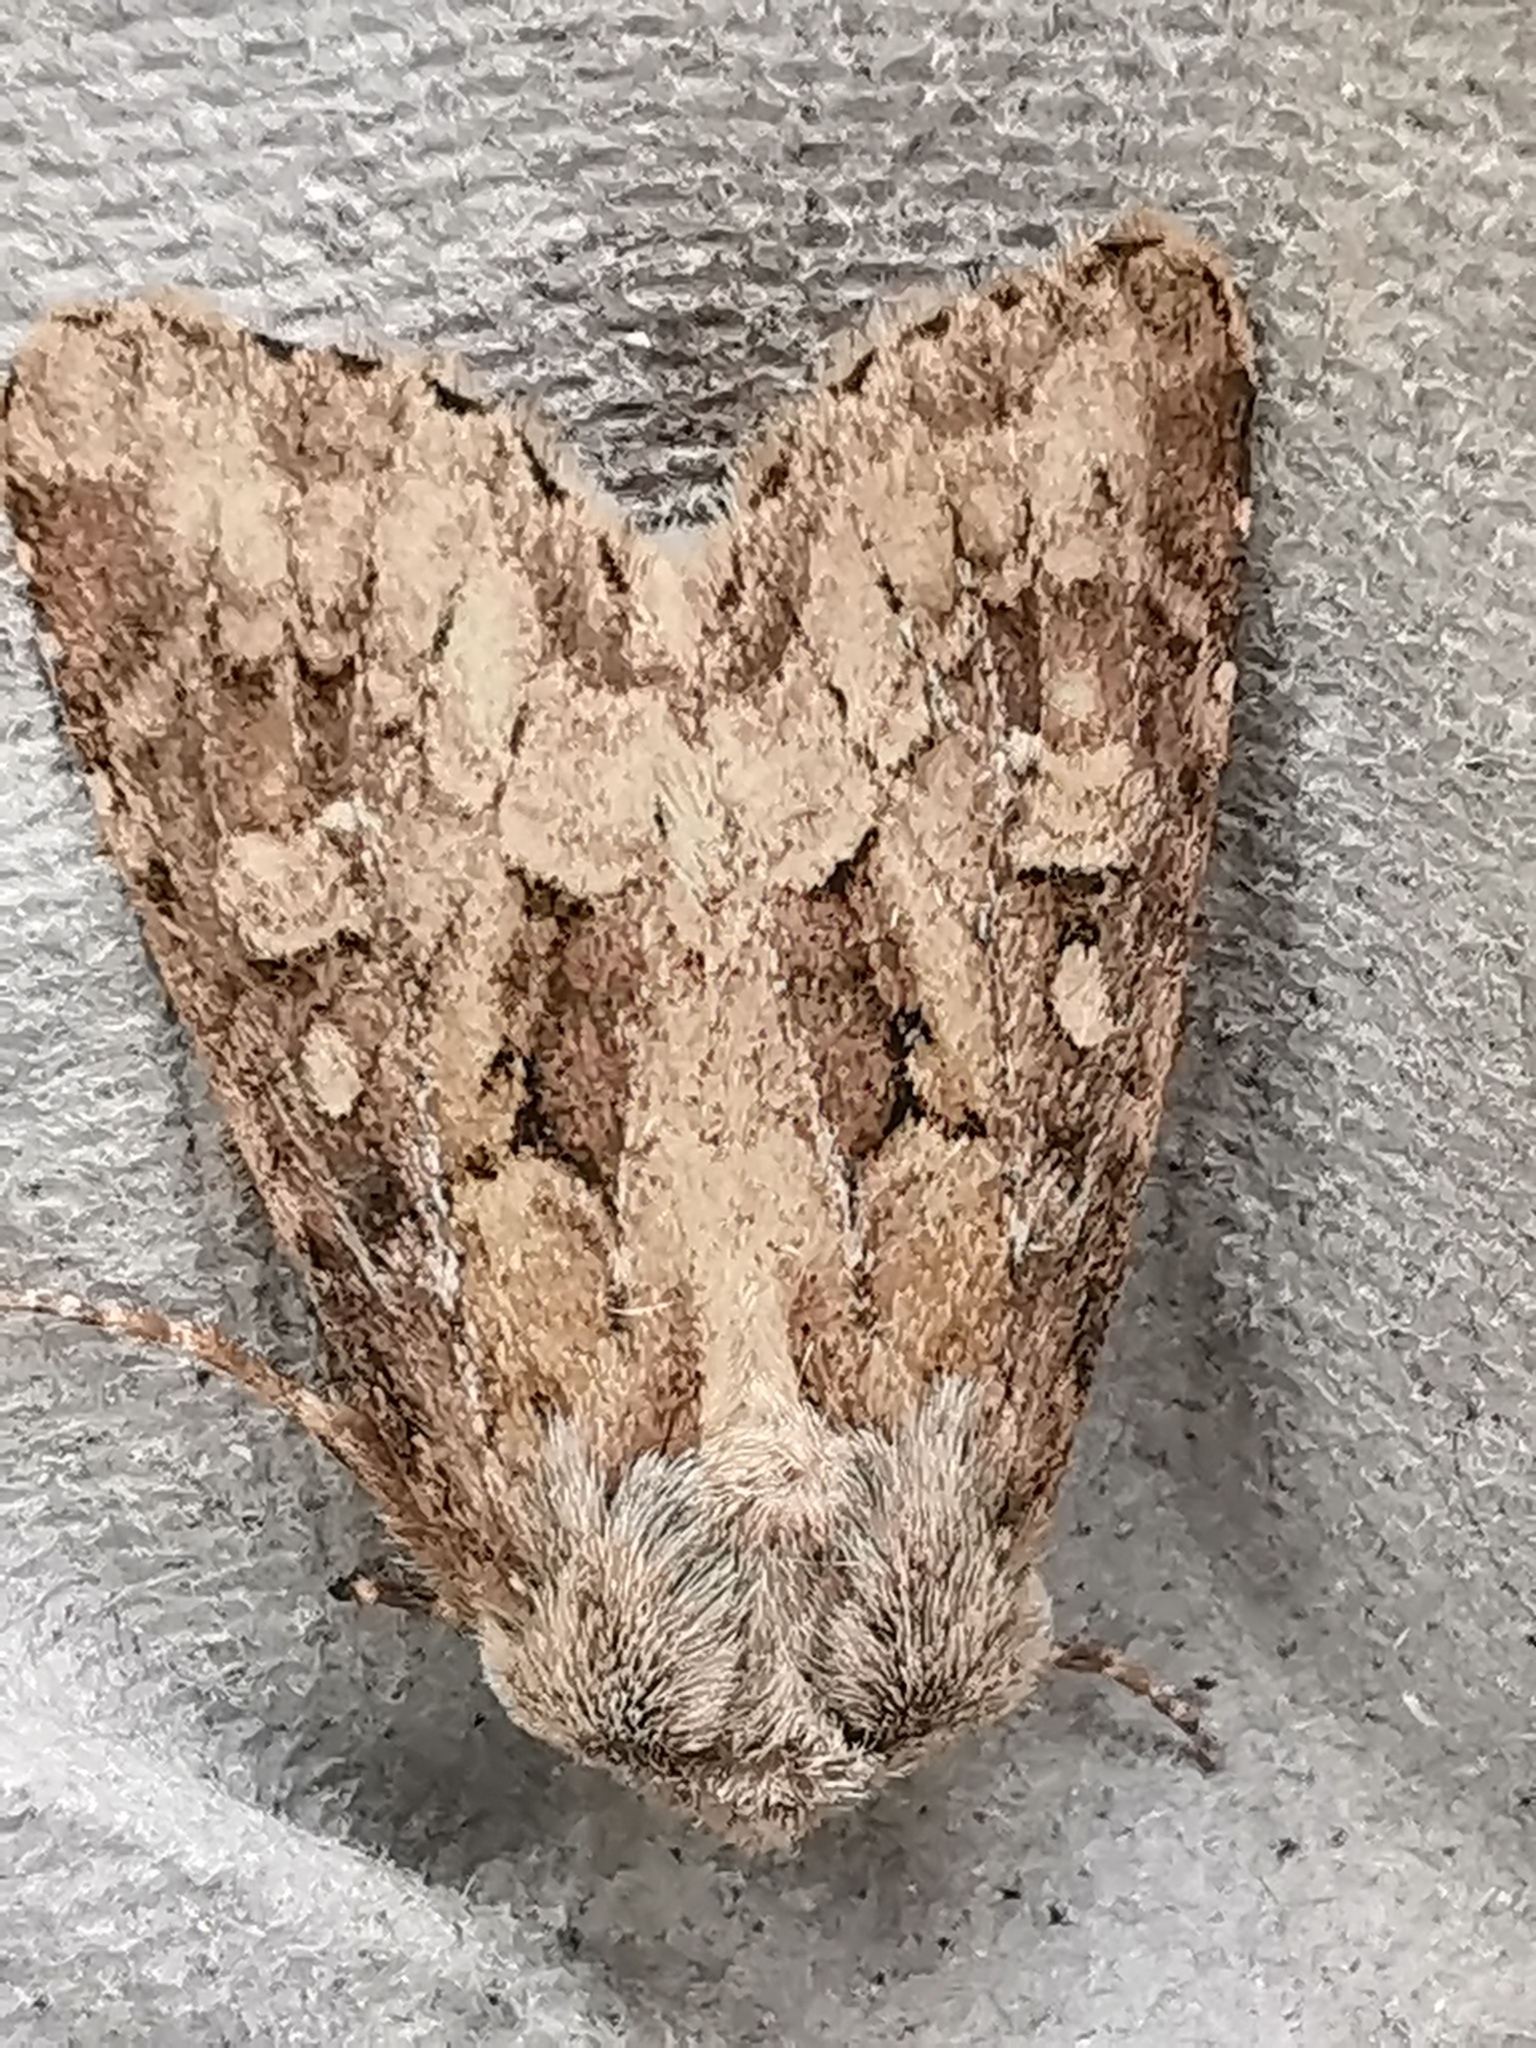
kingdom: Animalia
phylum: Arthropoda
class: Insecta
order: Lepidoptera
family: Noctuidae
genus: Luperina
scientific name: Luperina testacea
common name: Flounced rustic
